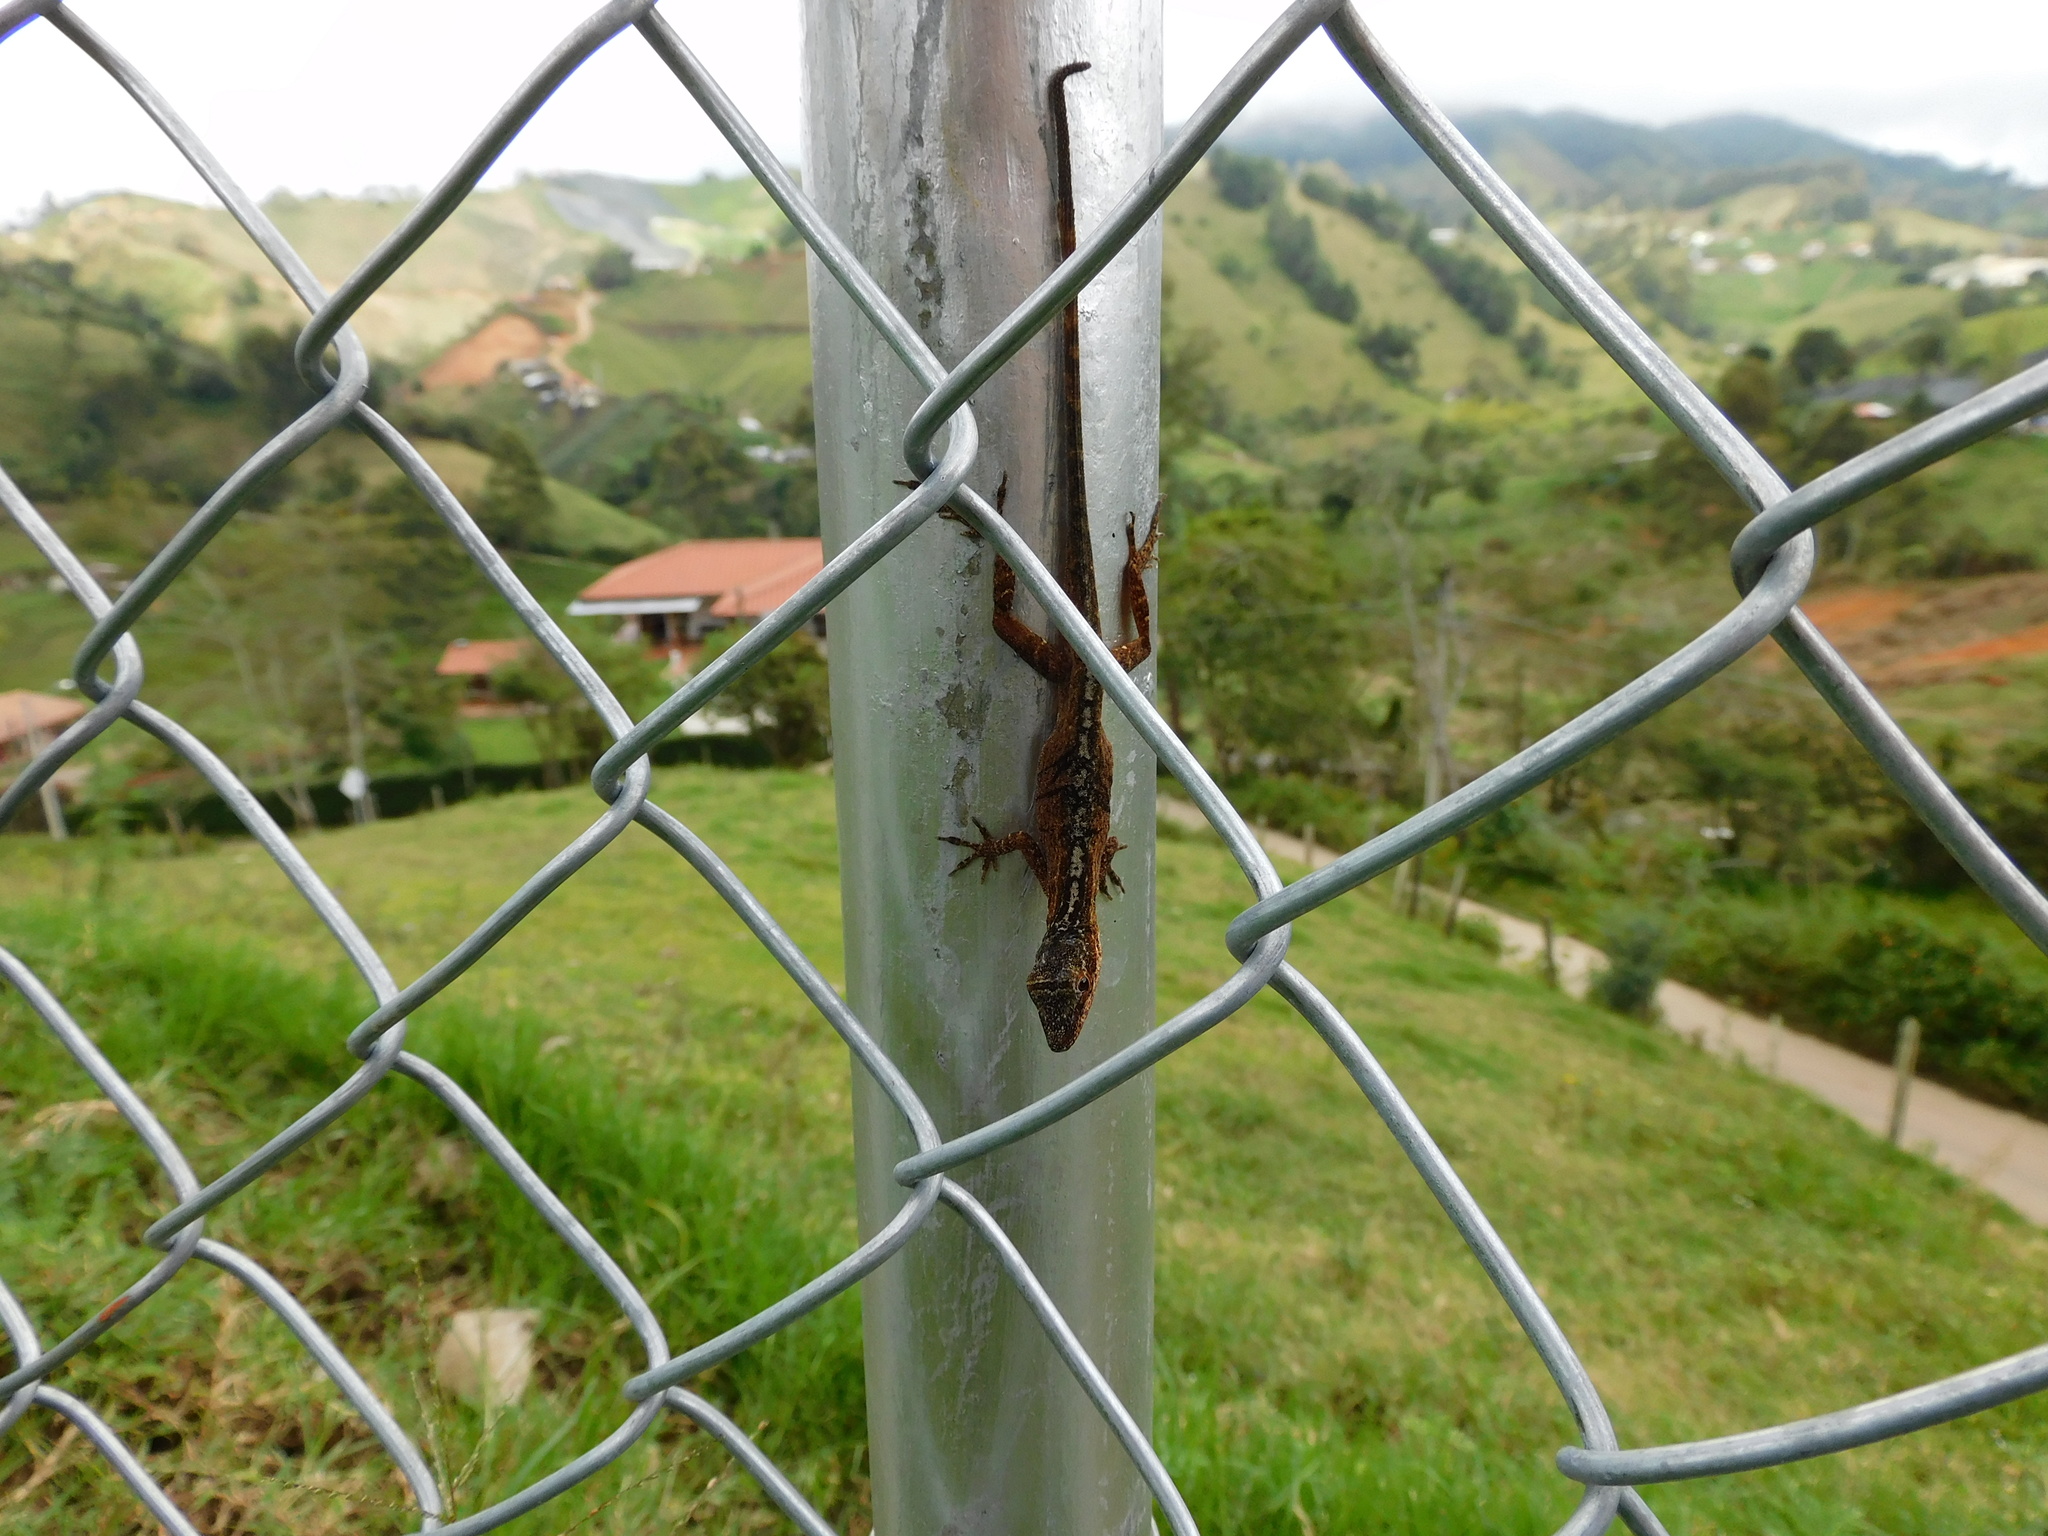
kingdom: Animalia
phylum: Chordata
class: Squamata
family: Dactyloidae
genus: Anolis
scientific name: Anolis mariarum
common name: Blemished anole
